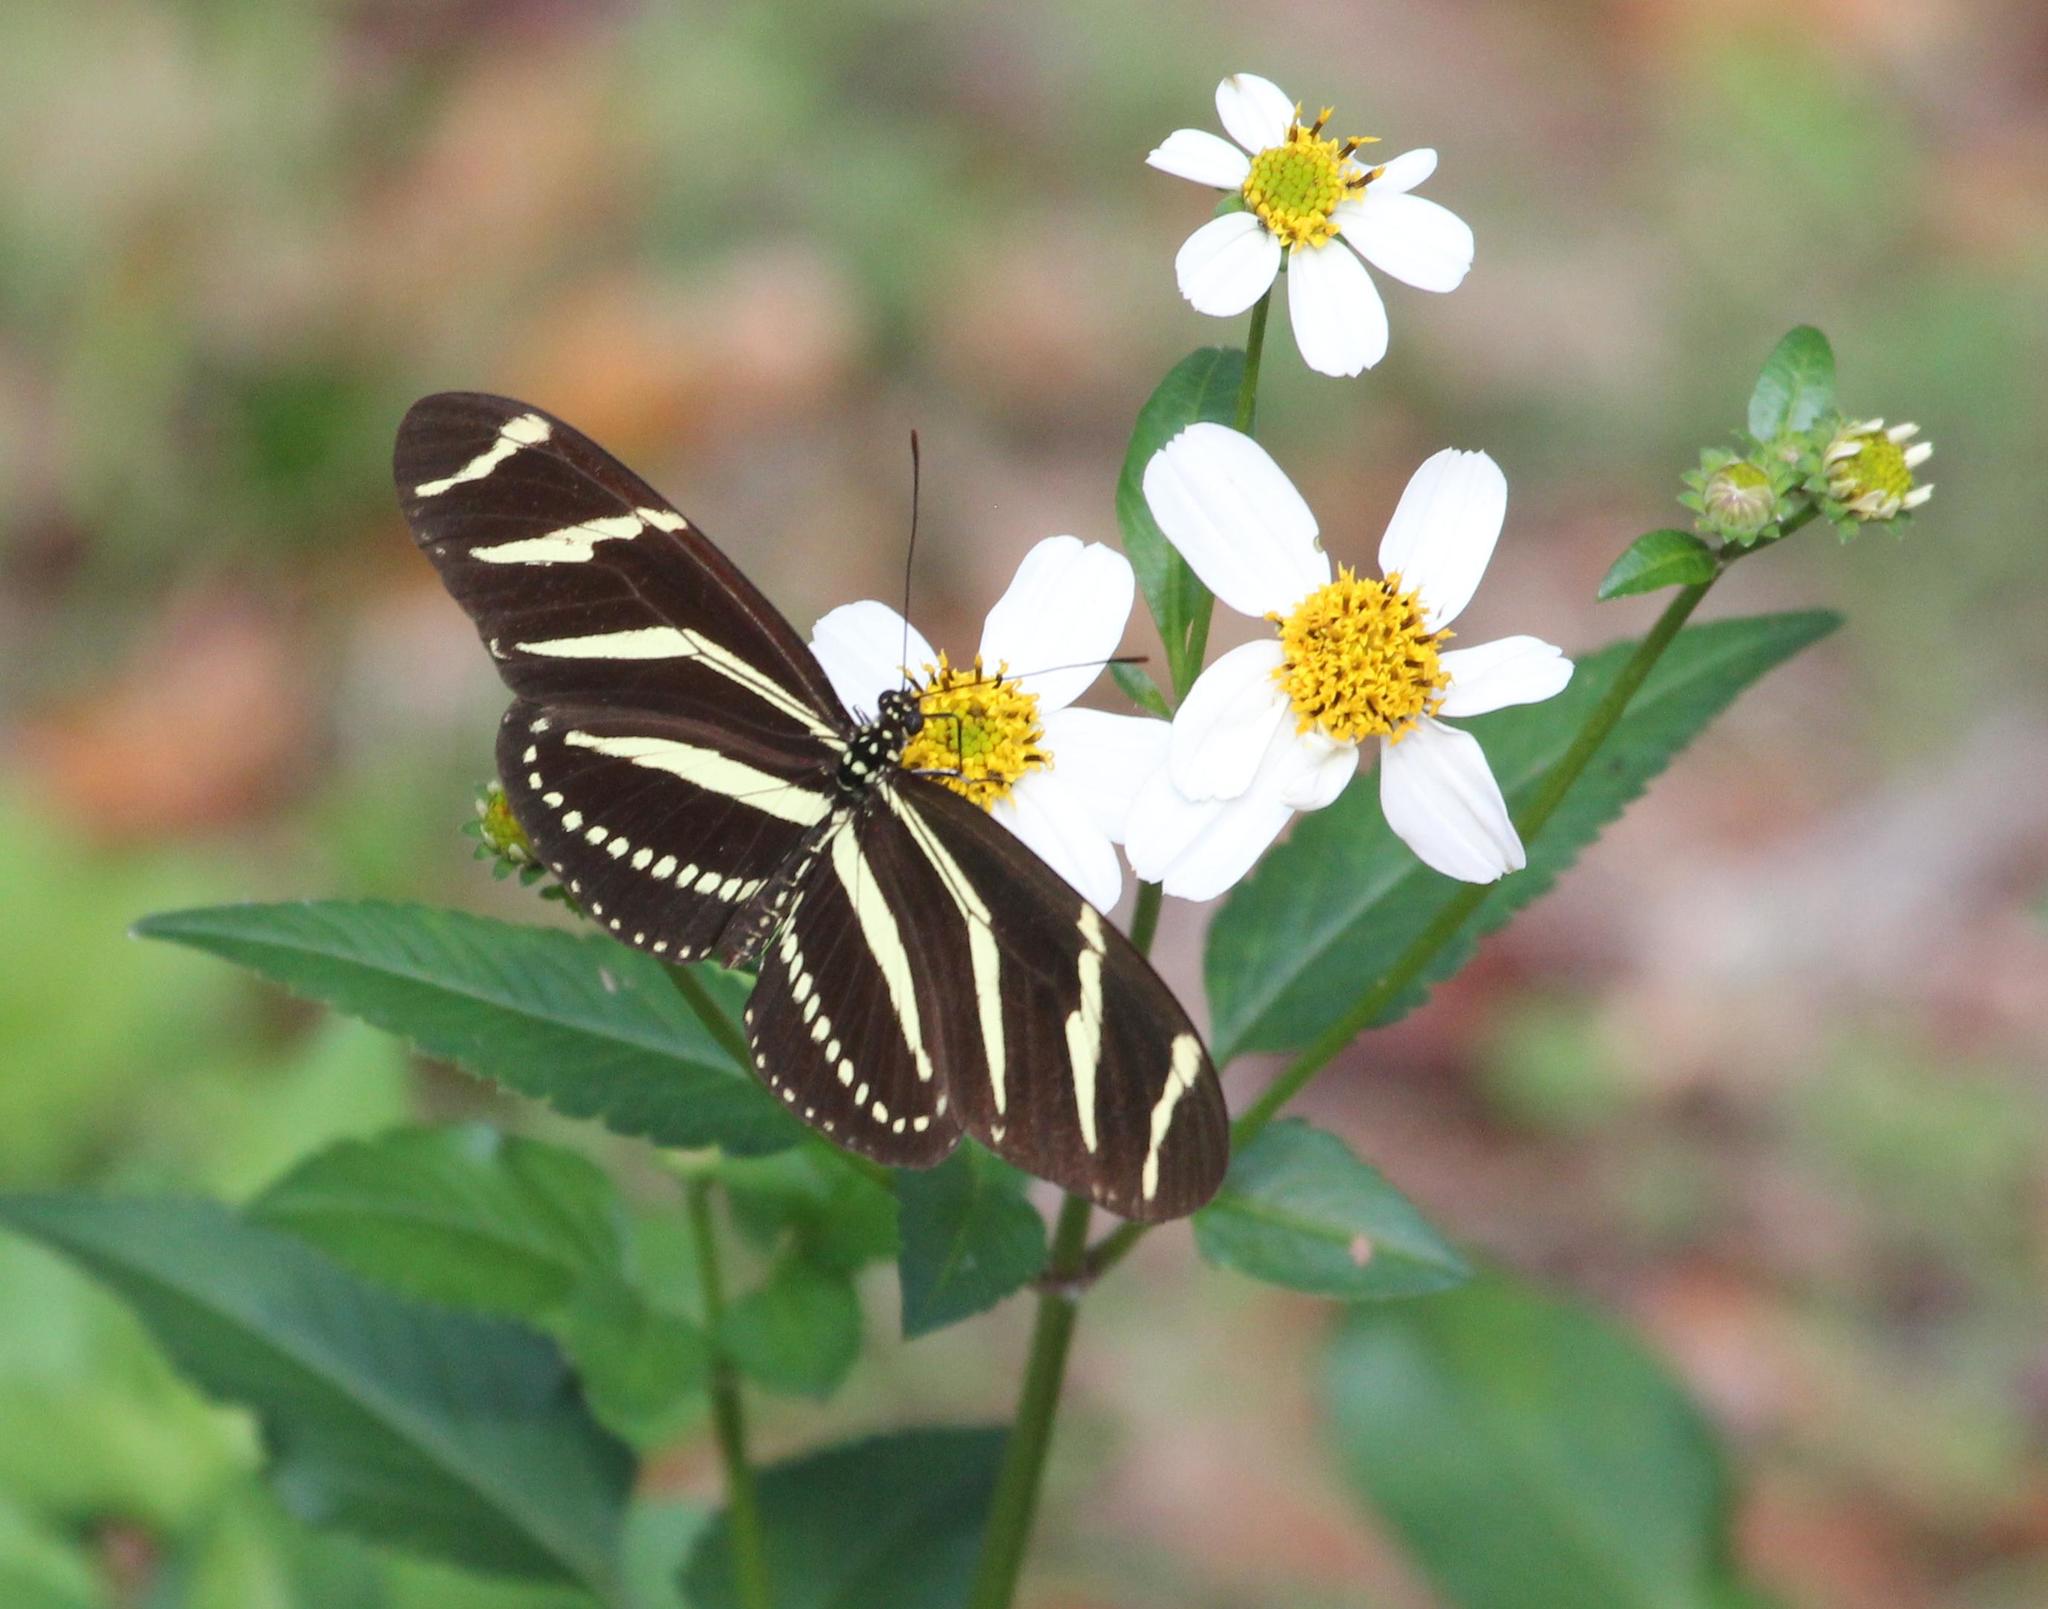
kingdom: Animalia
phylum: Arthropoda
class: Insecta
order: Lepidoptera
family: Nymphalidae
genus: Heliconius
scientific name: Heliconius charithonia
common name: Zebra long wing
